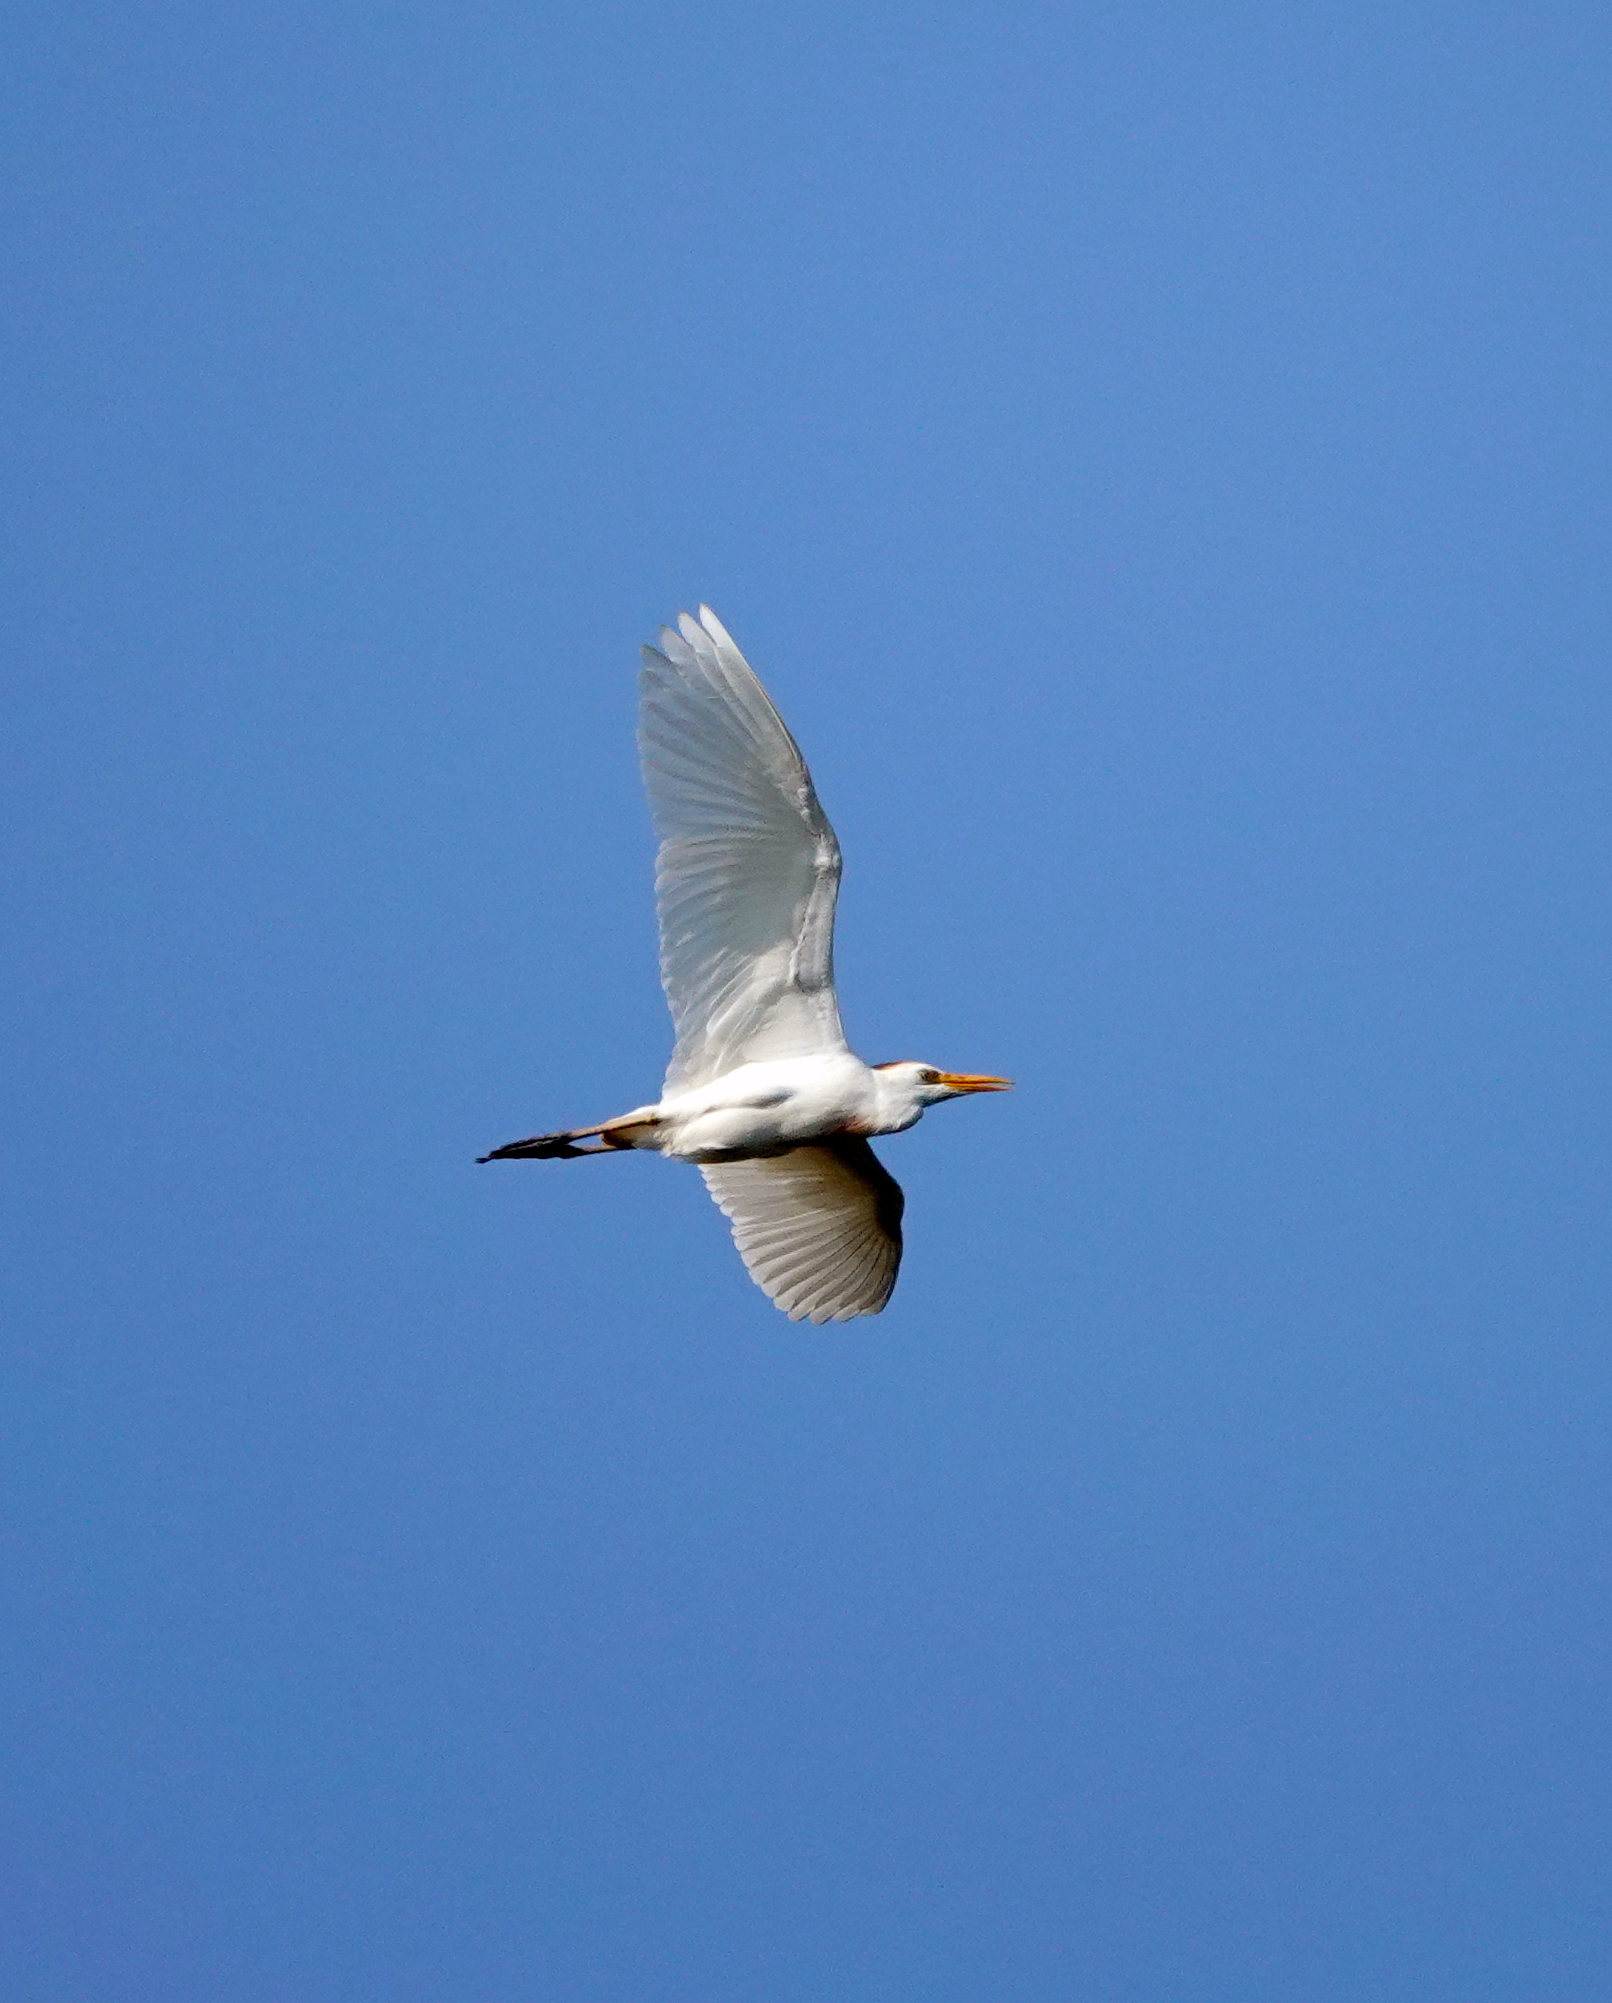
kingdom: Animalia
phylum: Chordata
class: Aves
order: Pelecaniformes
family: Ardeidae
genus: Bubulcus
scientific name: Bubulcus ibis
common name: Cattle egret
